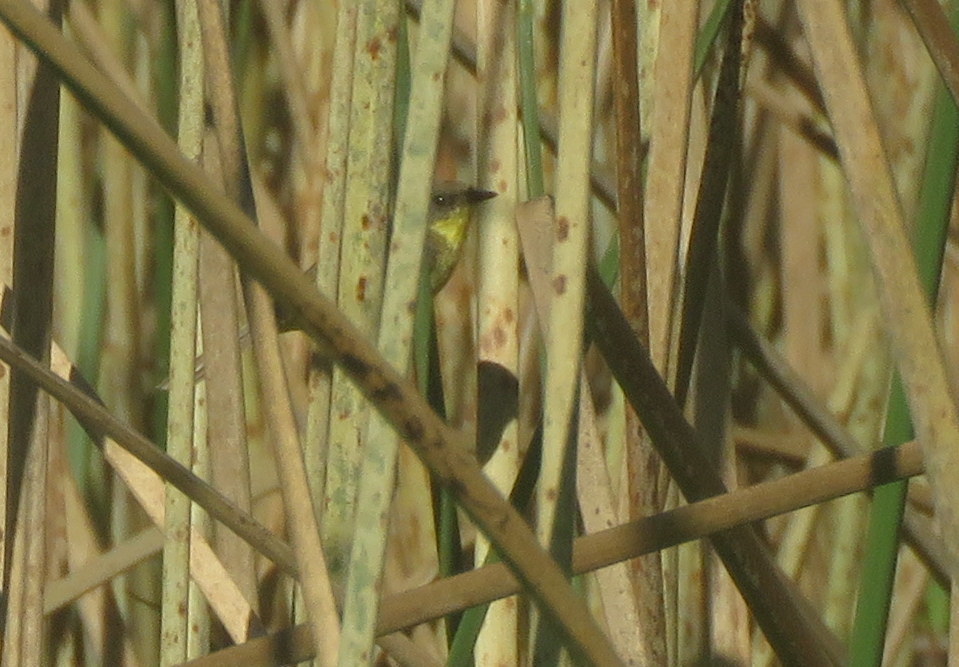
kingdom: Animalia
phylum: Chordata
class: Aves
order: Passeriformes
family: Tyrannidae
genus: Pseudocolopteryx
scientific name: Pseudocolopteryx flaviventris
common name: Warbling doradito
